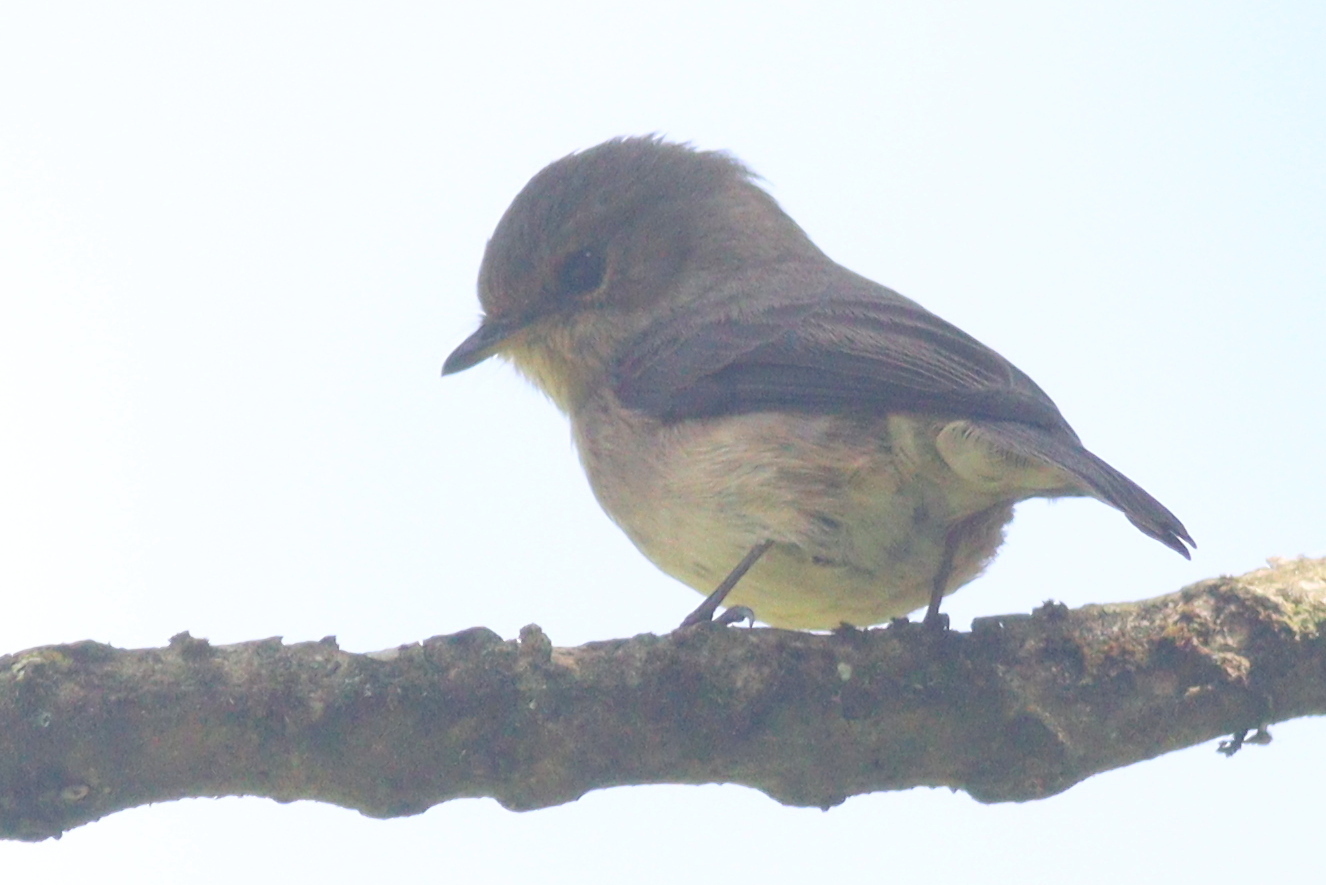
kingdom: Animalia
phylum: Chordata
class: Aves
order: Passeriformes
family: Muscicapidae
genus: Muscicapa
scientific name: Muscicapa adusta
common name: African dusky flycatcher
